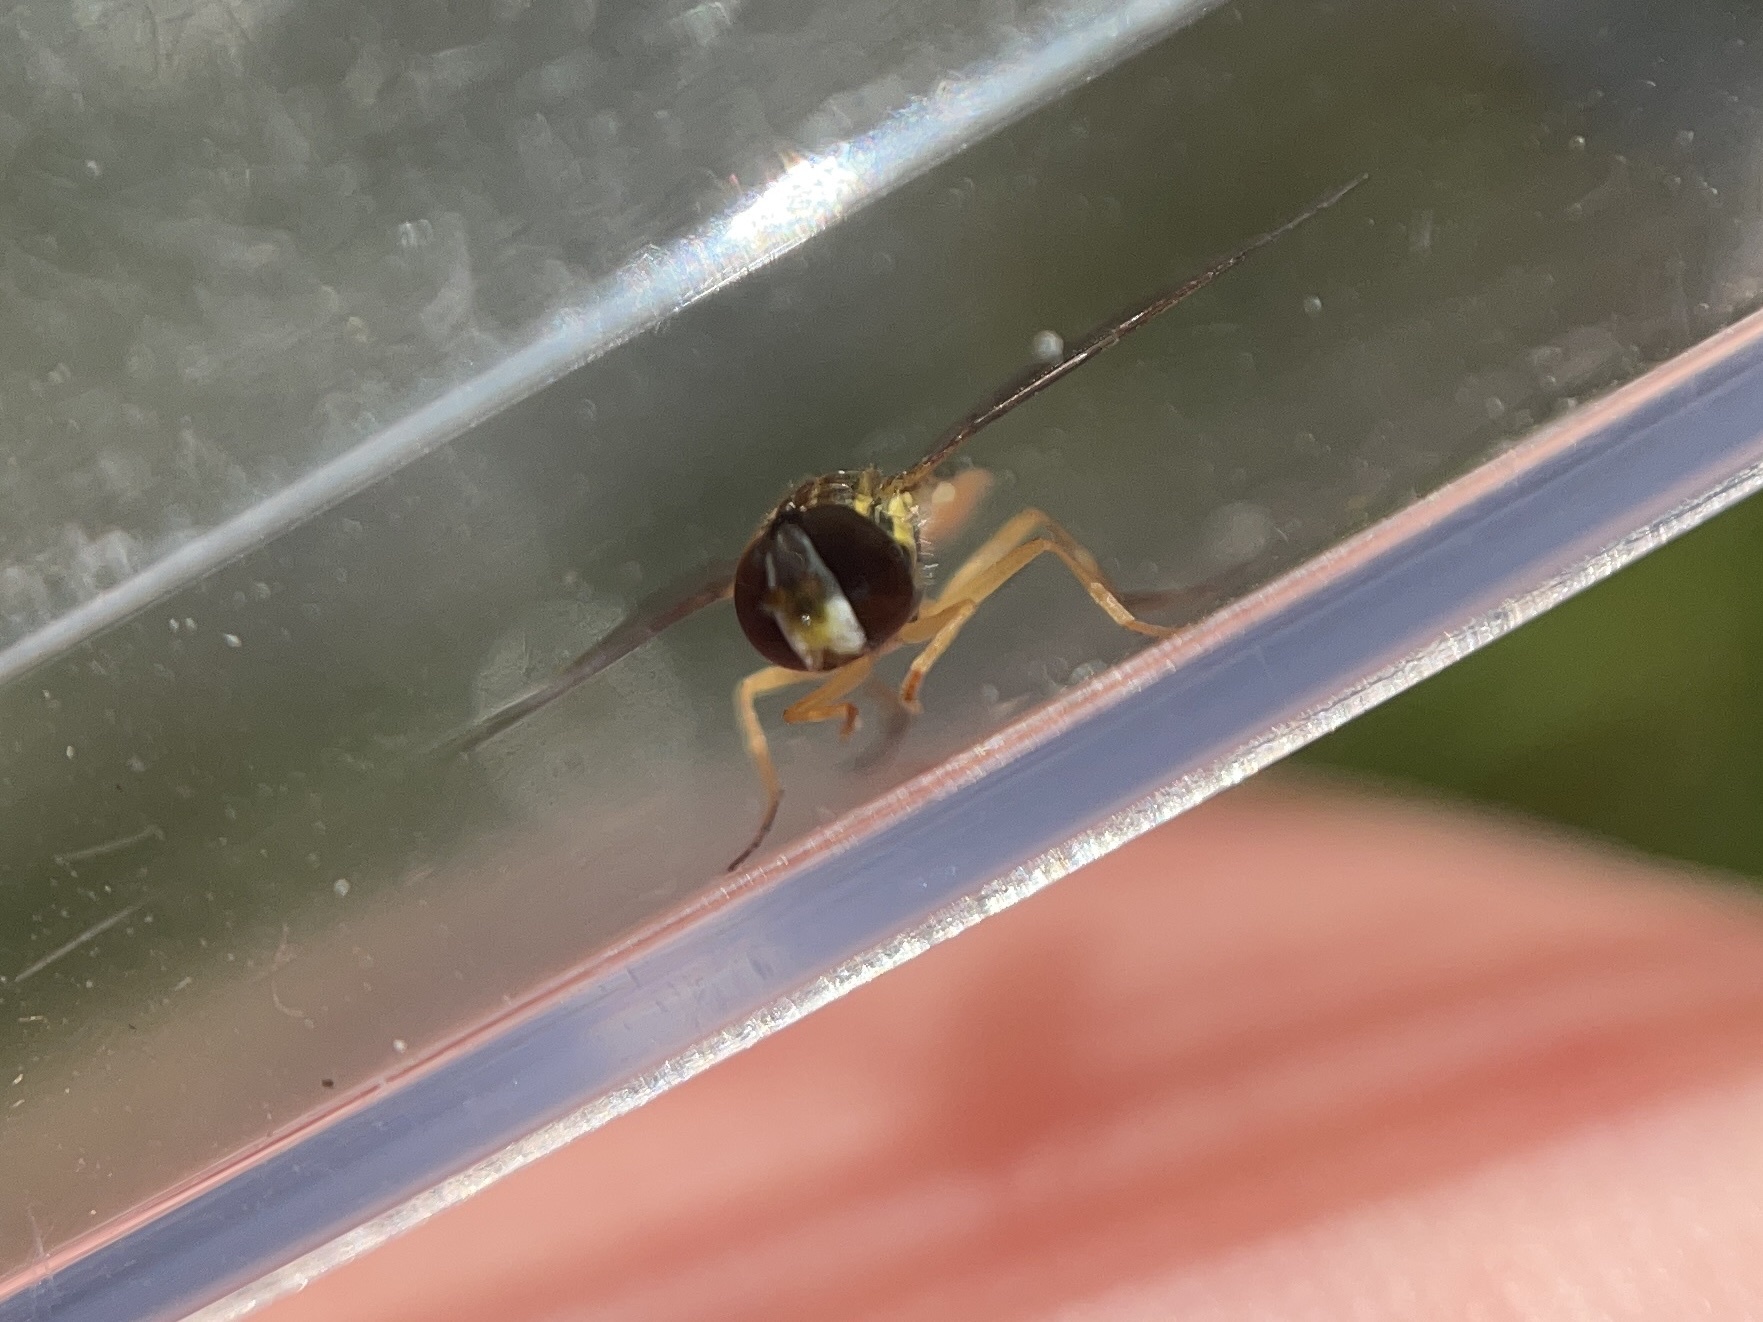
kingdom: Animalia
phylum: Arthropoda
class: Insecta
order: Diptera
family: Syrphidae
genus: Toxomerus
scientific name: Toxomerus marginatus
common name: Syrphid fly
